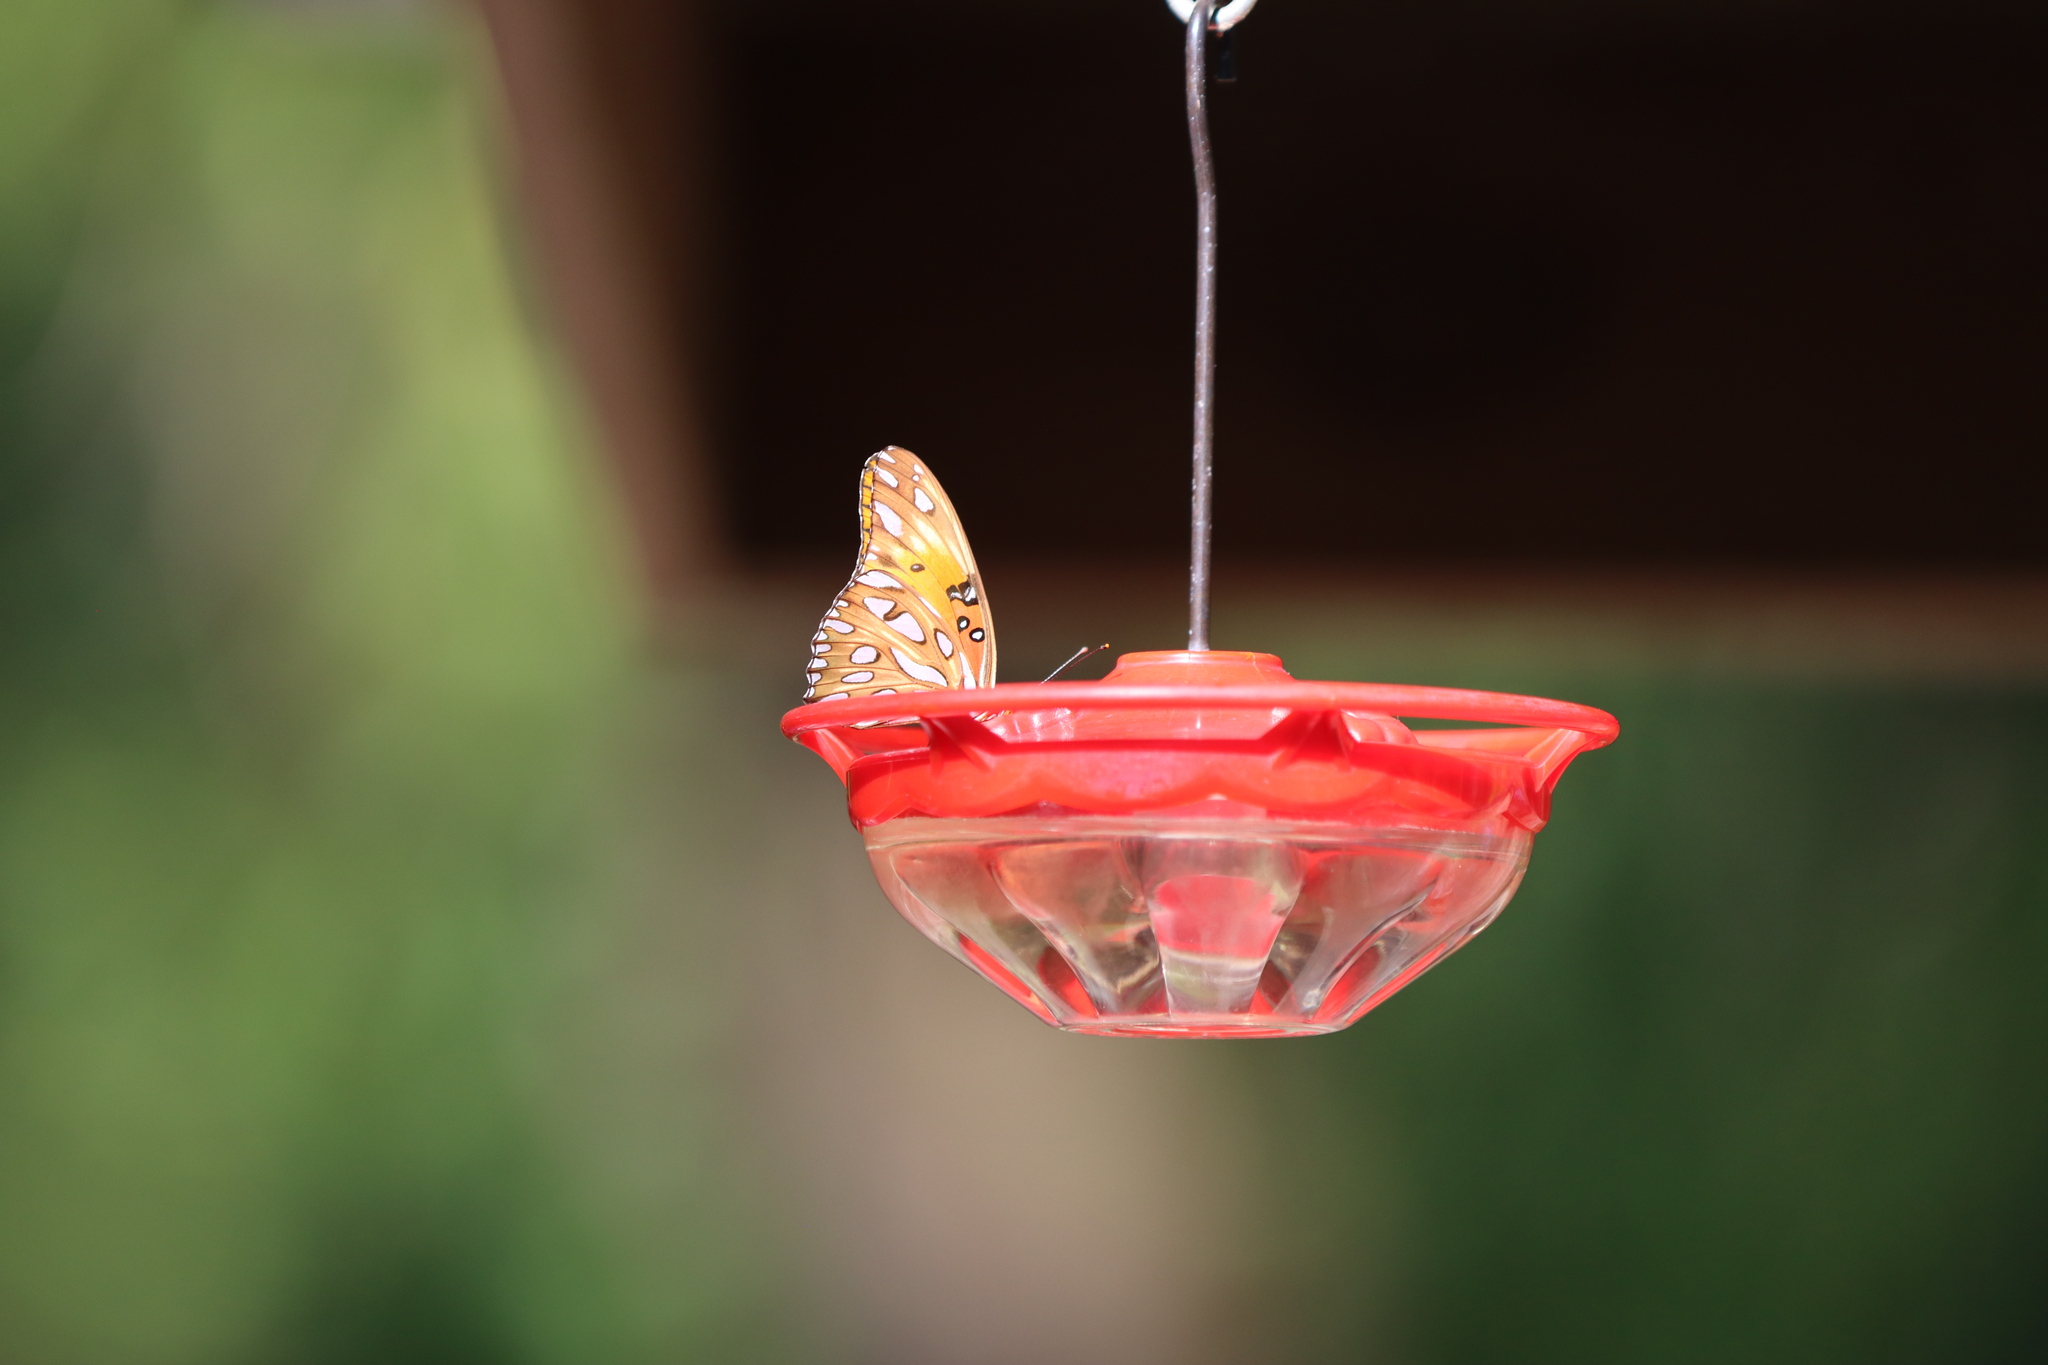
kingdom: Animalia
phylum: Arthropoda
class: Insecta
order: Lepidoptera
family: Nymphalidae
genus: Dione
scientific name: Dione vanillae
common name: Gulf fritillary
